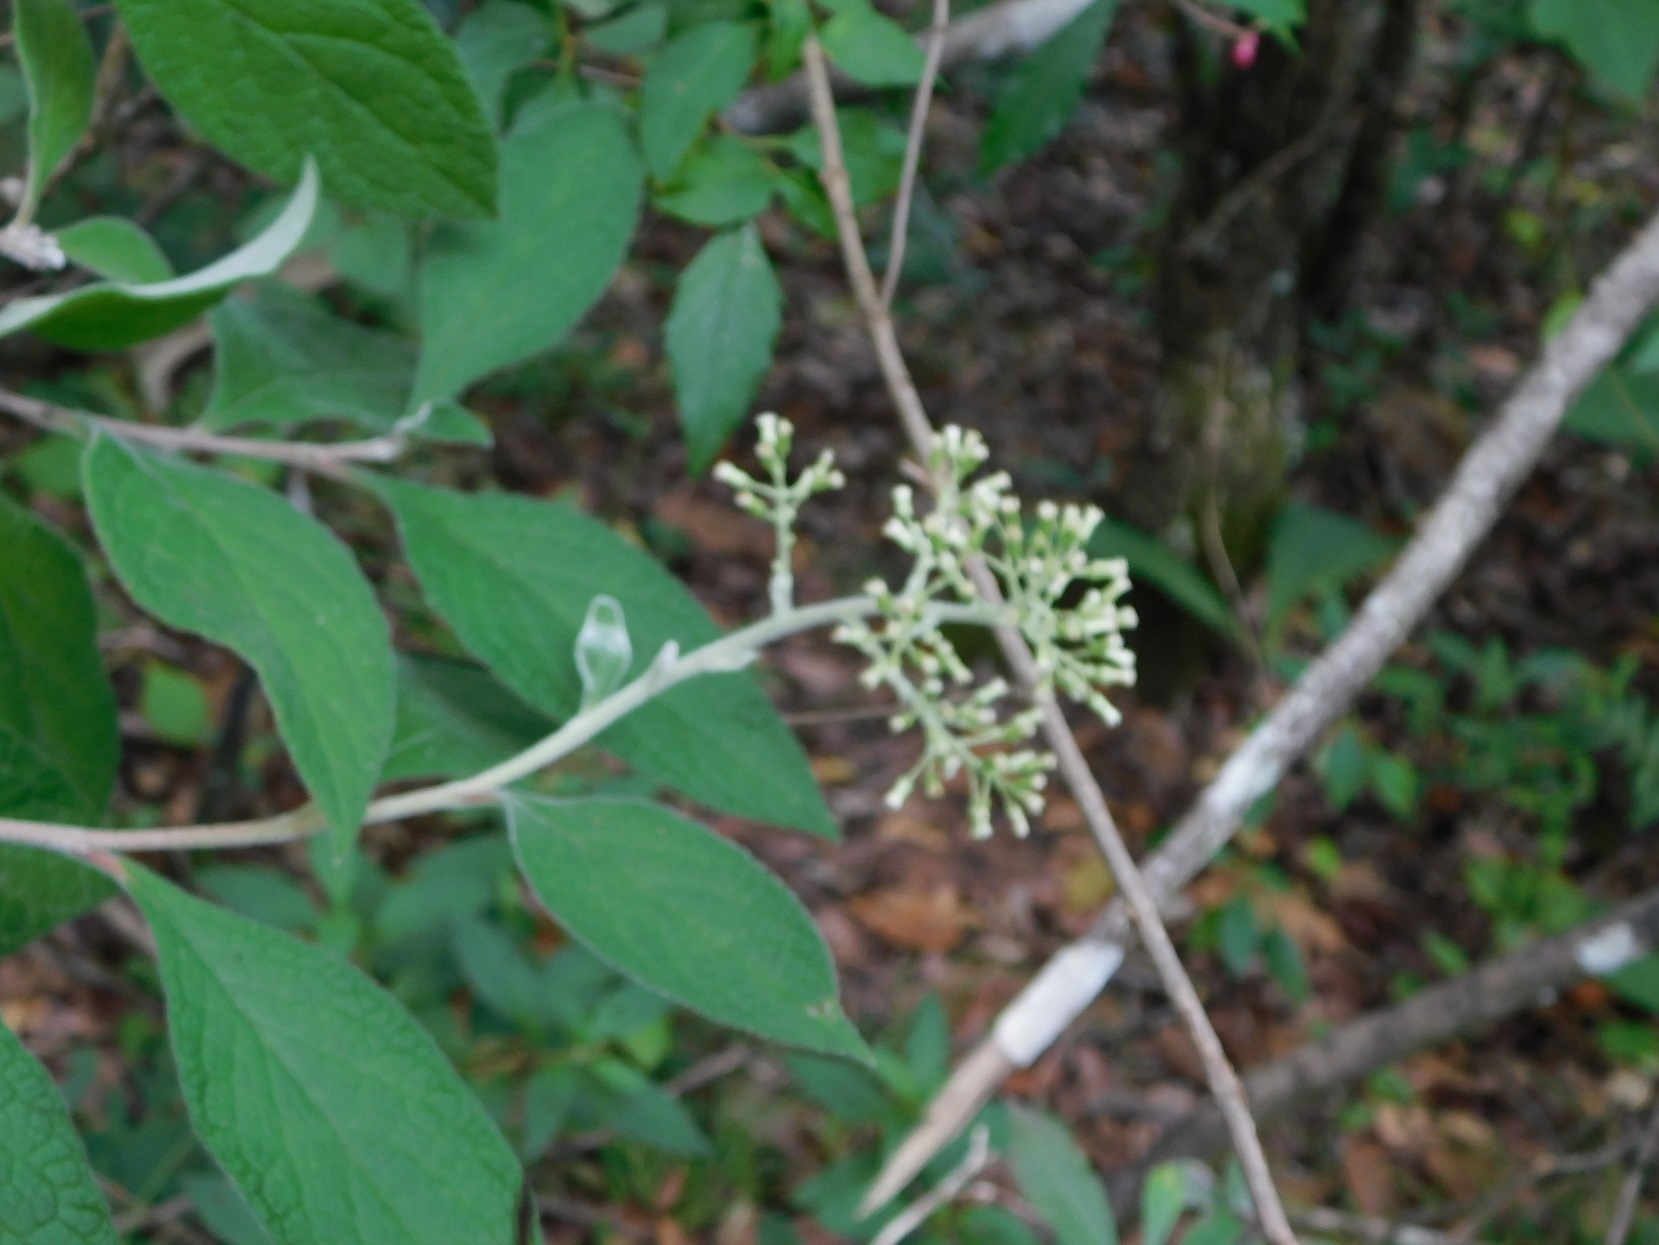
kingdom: Plantae
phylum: Tracheophyta
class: Magnoliopsida
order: Asterales
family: Asteraceae
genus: Eremosis
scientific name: Eremosis leiocarpa
